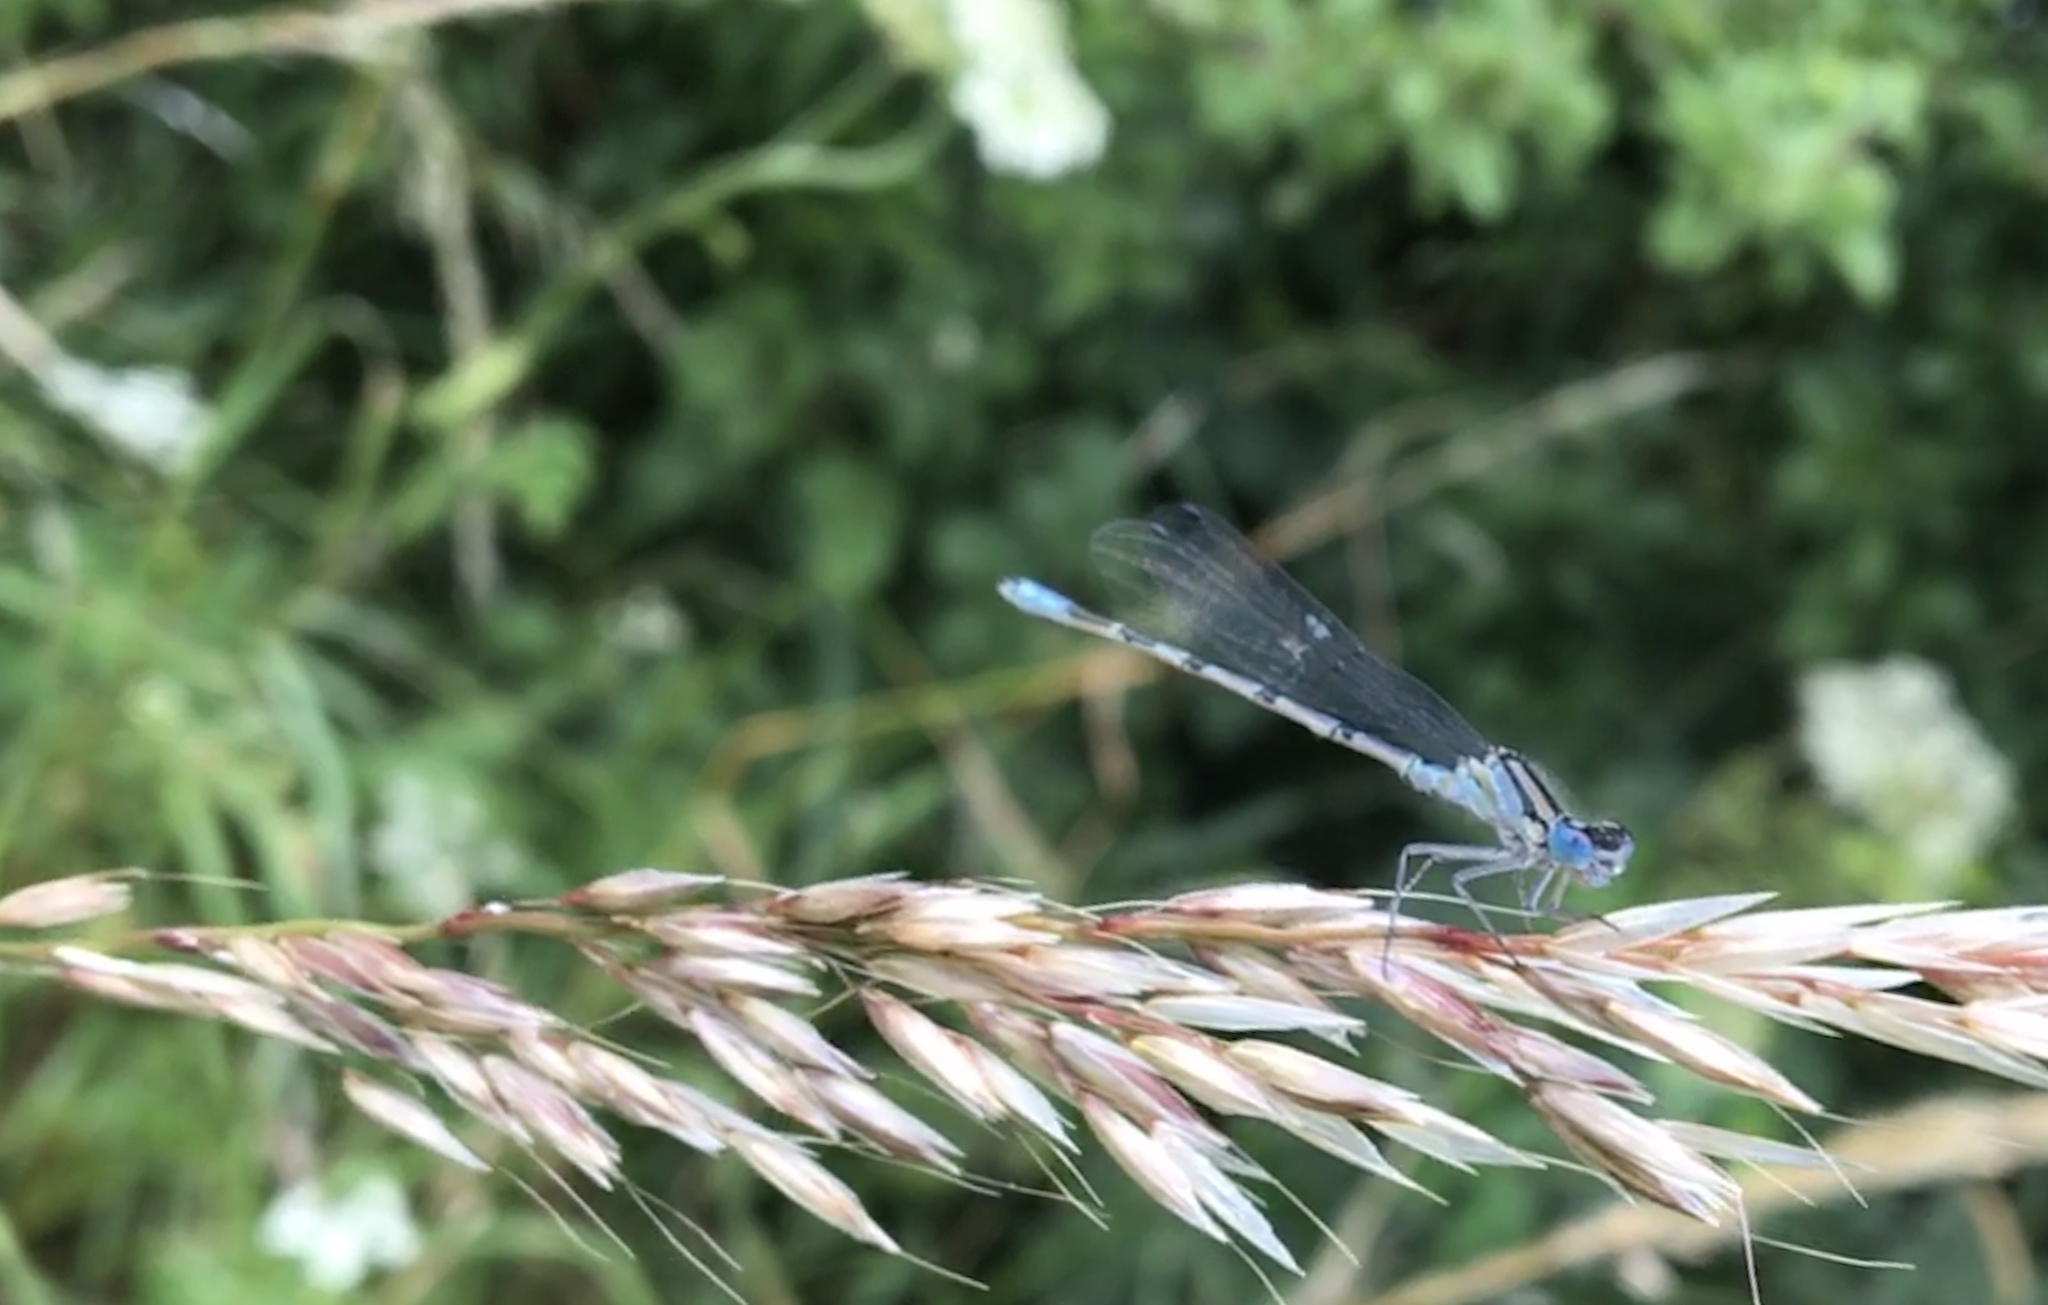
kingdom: Animalia
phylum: Arthropoda
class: Insecta
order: Odonata
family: Coenagrionidae
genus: Enallagma
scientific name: Enallagma cyathigerum
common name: Common blue damselfly
